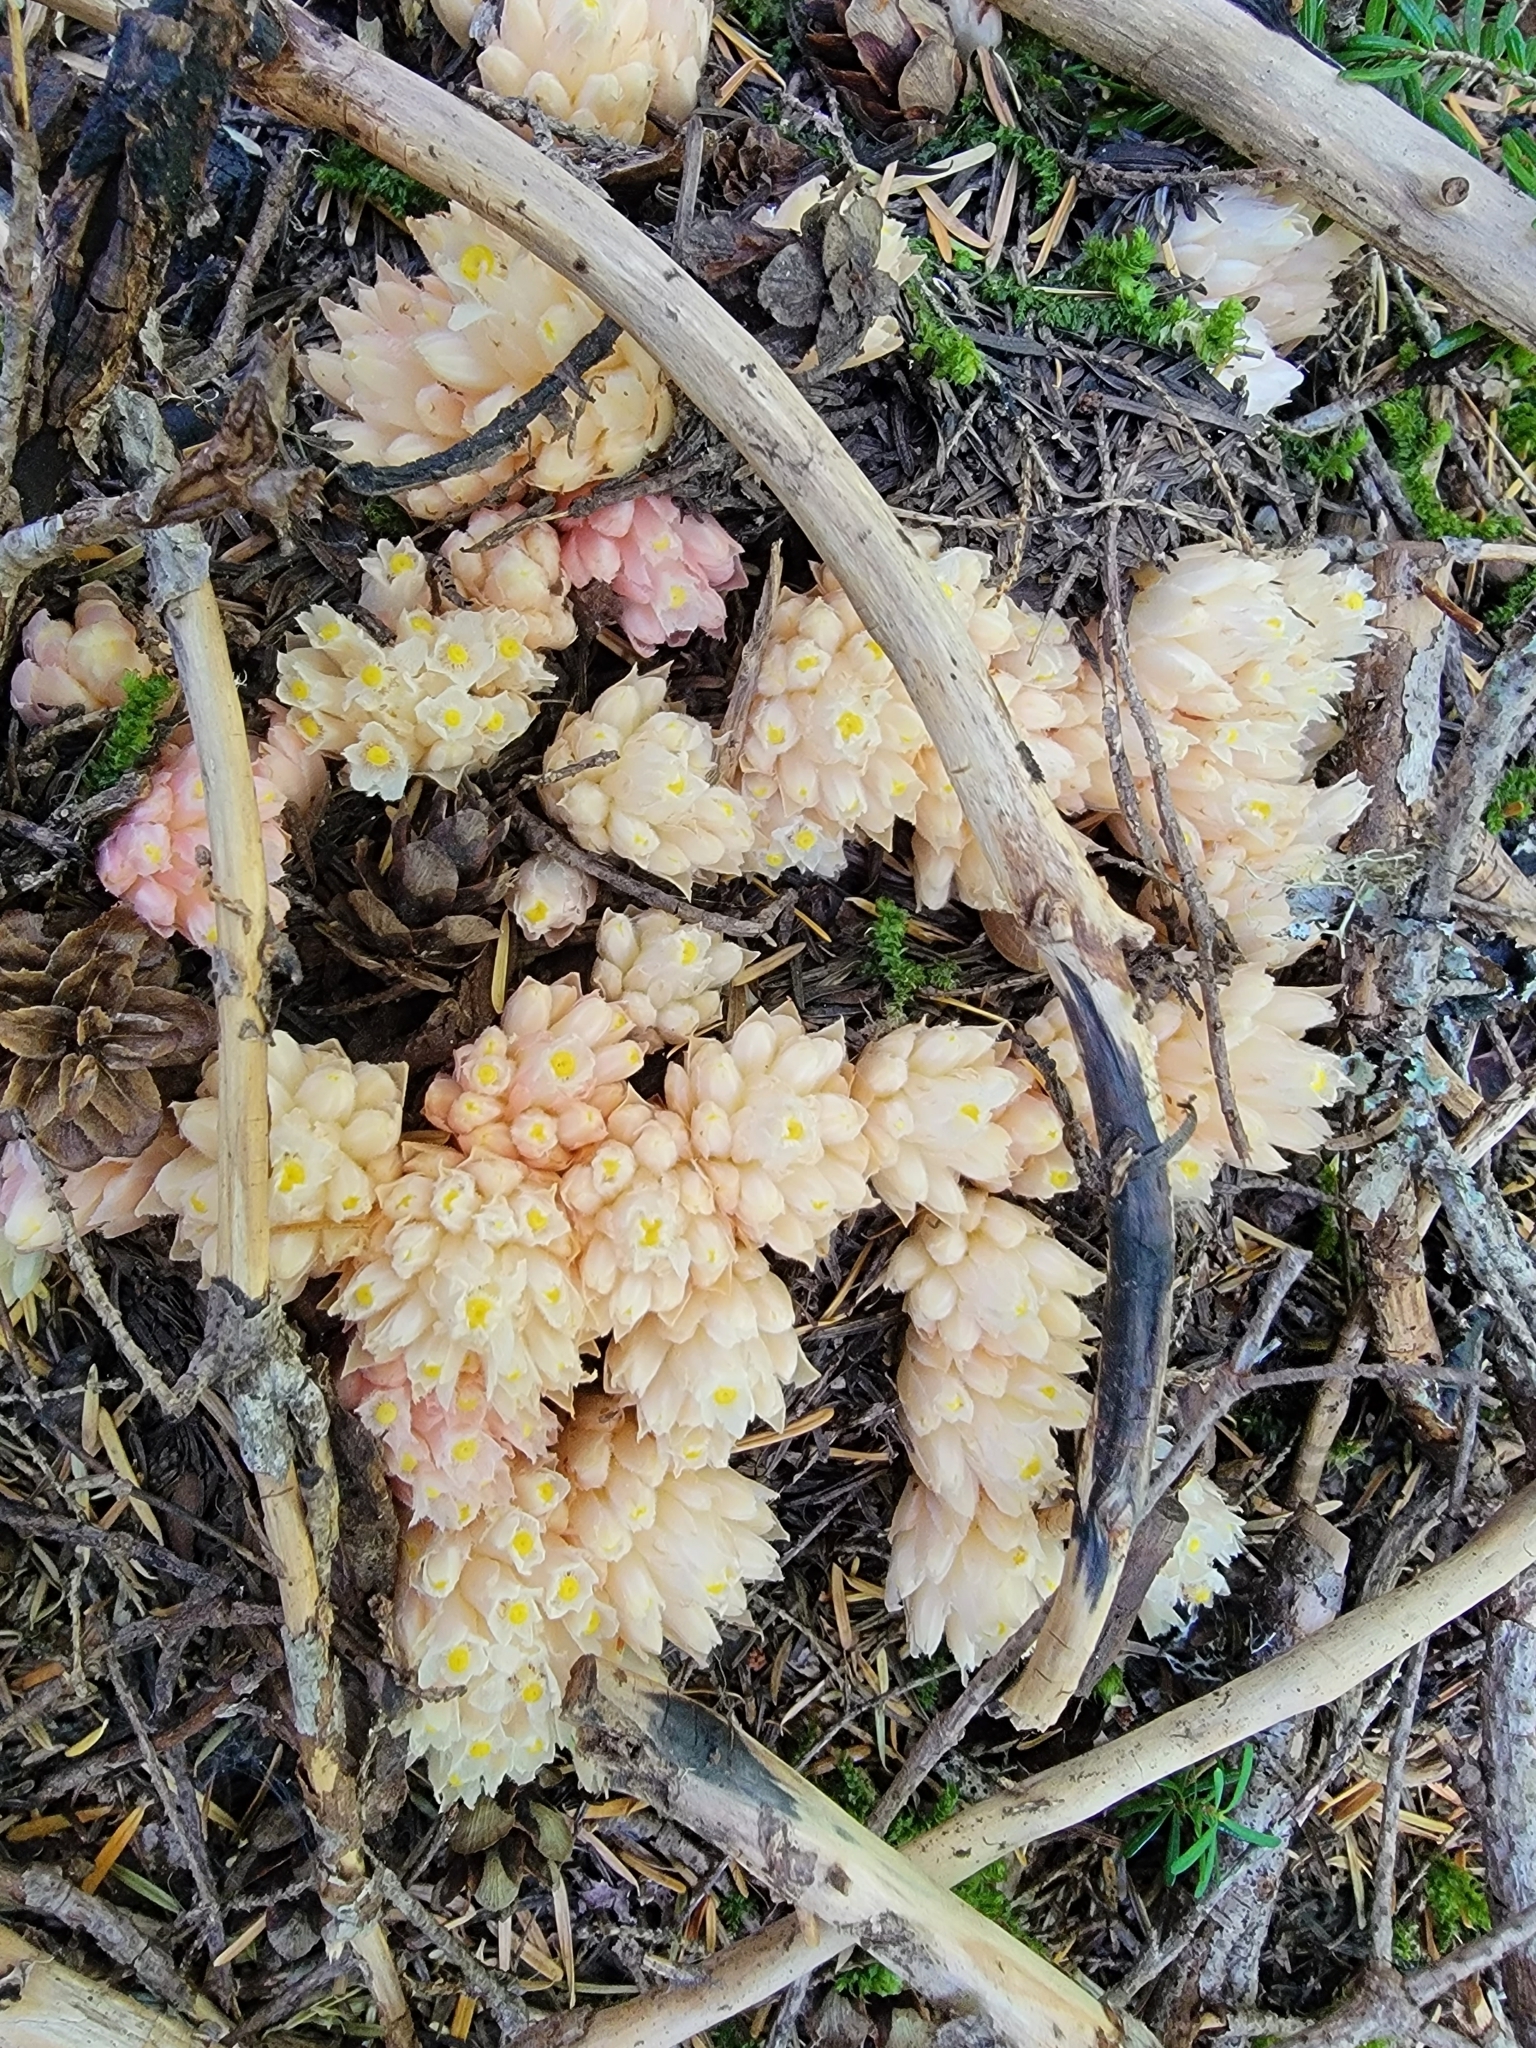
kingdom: Plantae
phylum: Tracheophyta
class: Magnoliopsida
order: Ericales
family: Ericaceae
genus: Hemitomes
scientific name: Hemitomes congestum
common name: Cone plant
